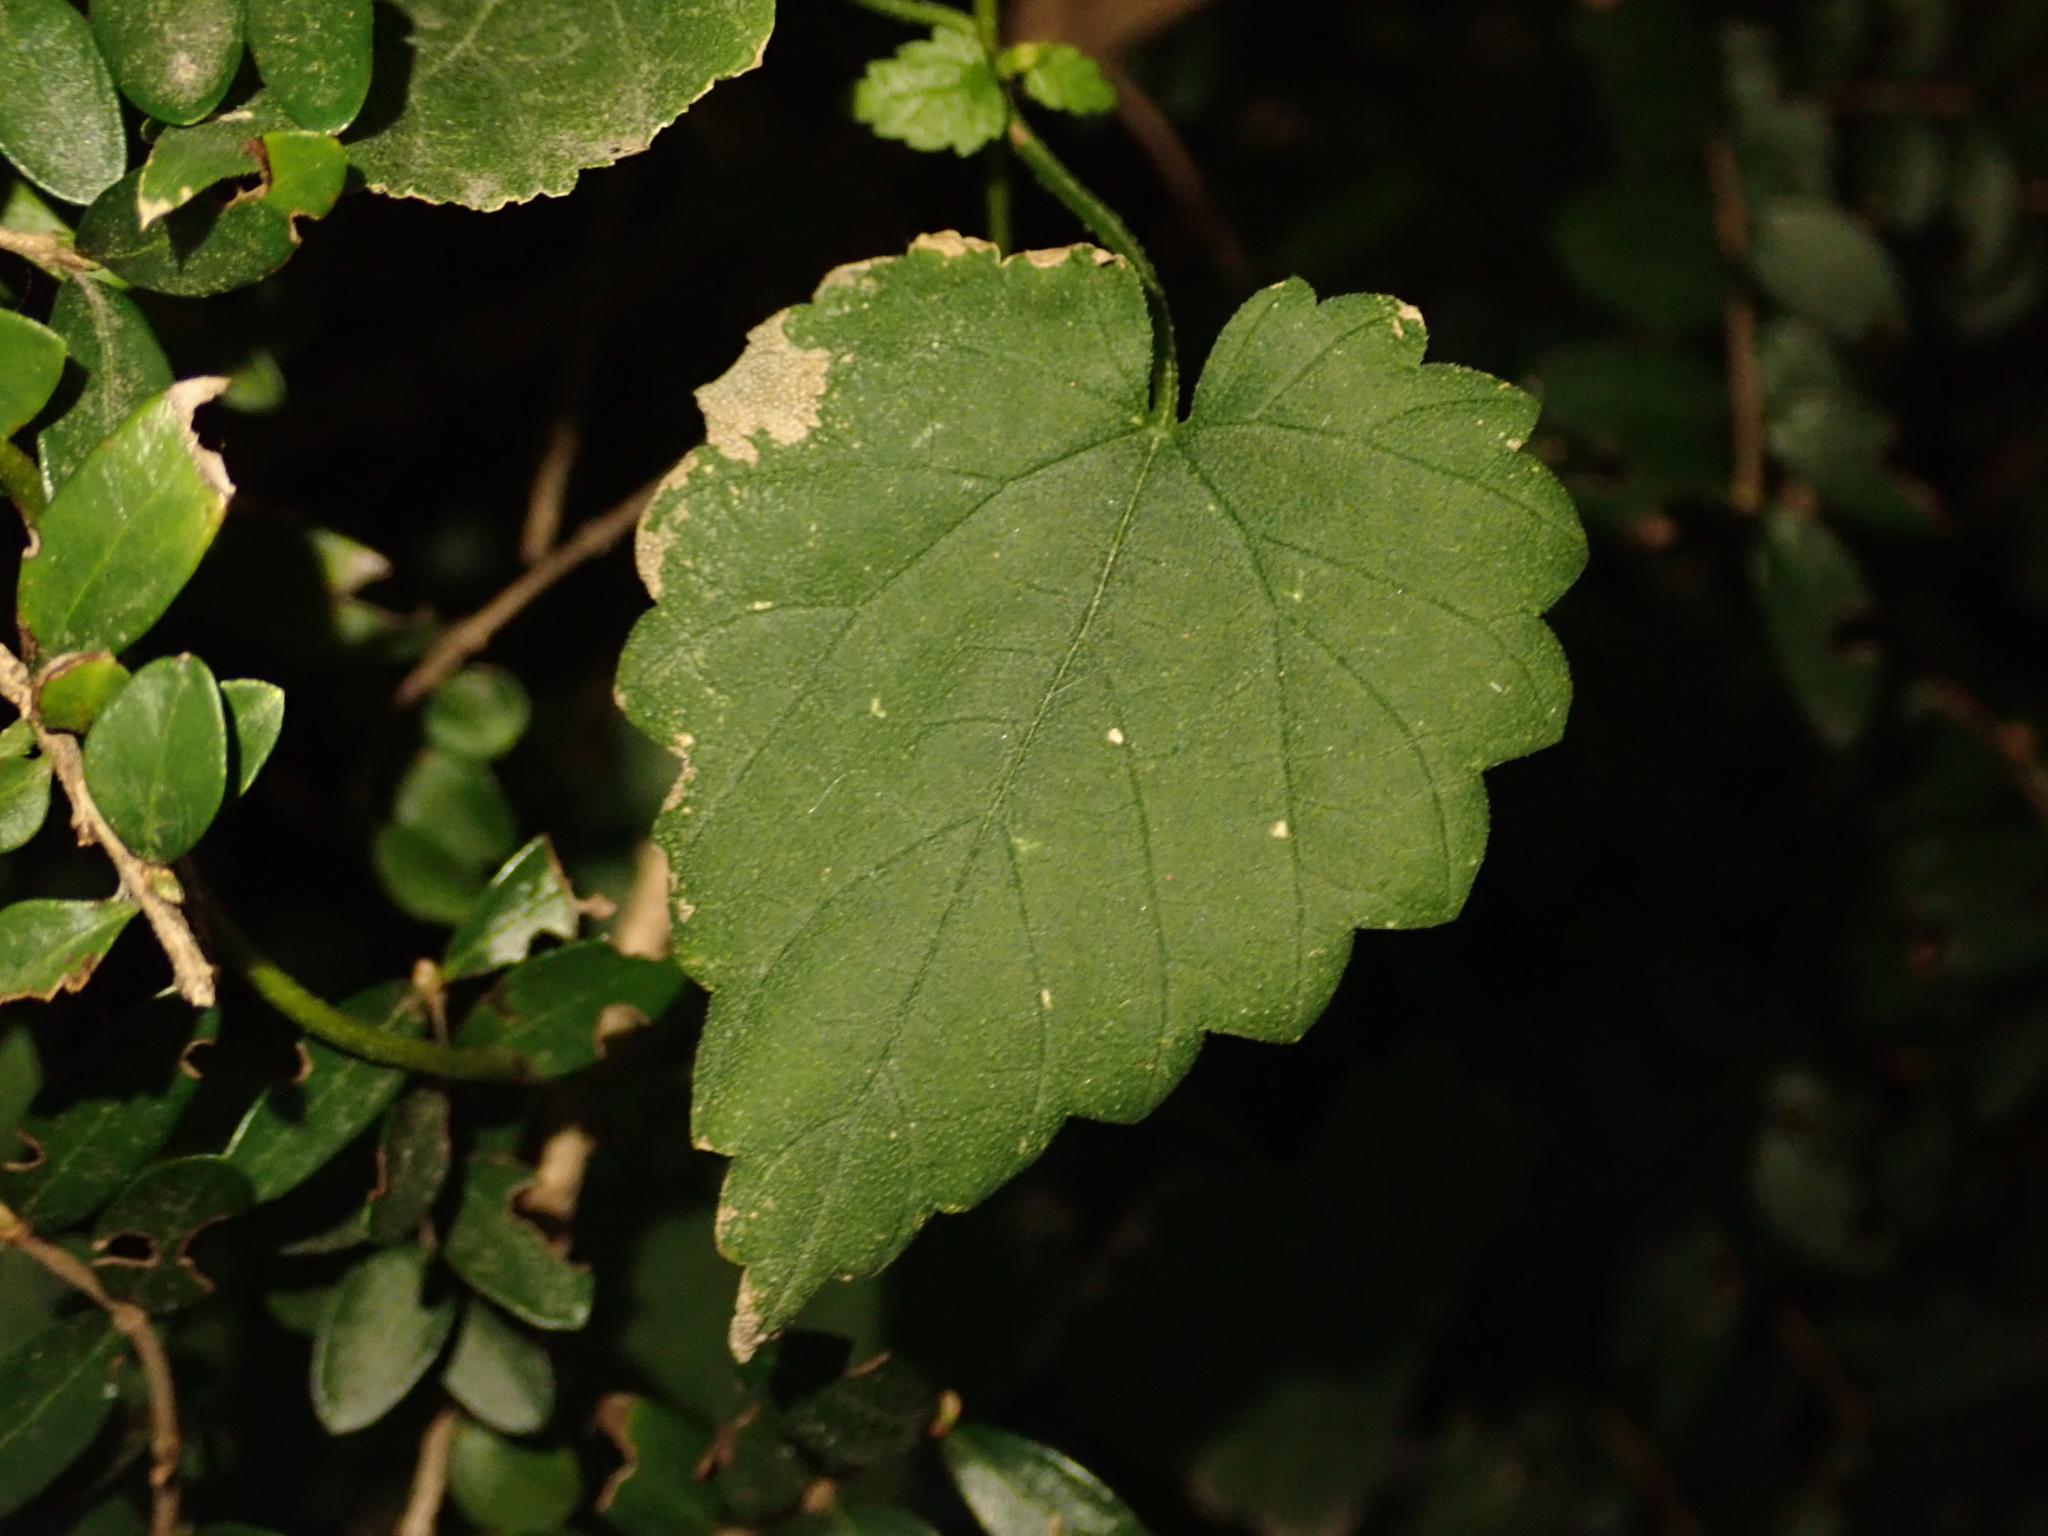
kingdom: Plantae
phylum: Tracheophyta
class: Magnoliopsida
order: Rosales
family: Cannabaceae
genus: Humulus
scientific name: Humulus lupulus
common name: Hop
